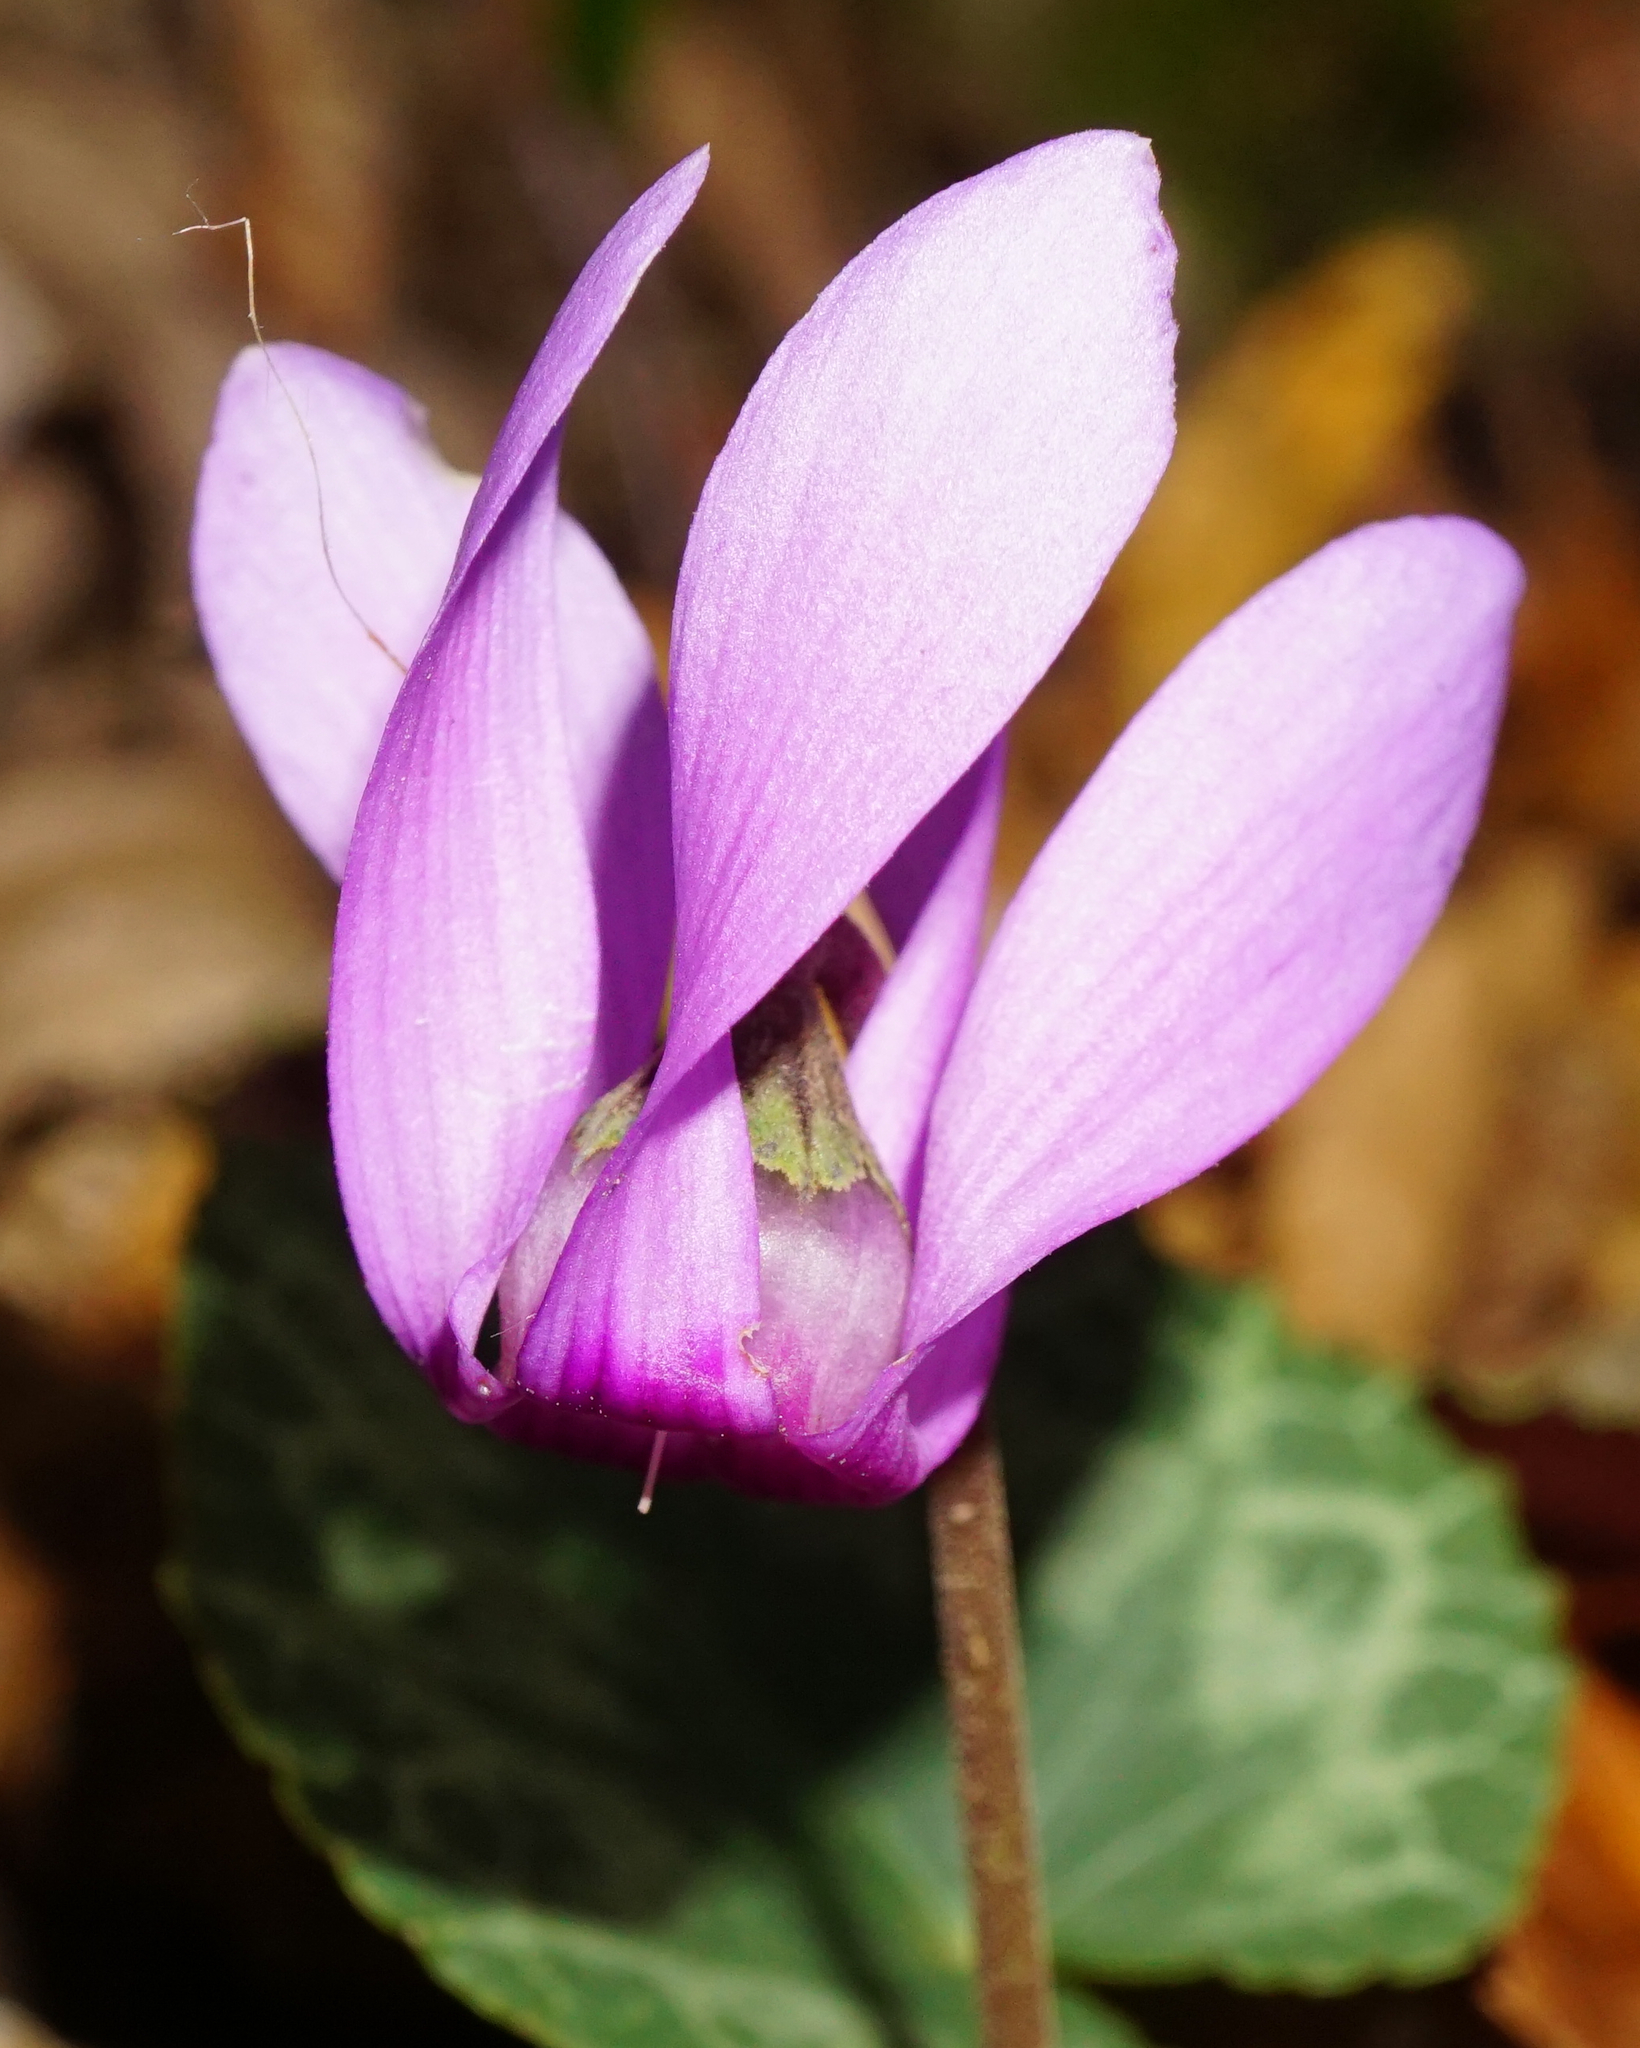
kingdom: Plantae
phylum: Tracheophyta
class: Magnoliopsida
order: Ericales
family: Primulaceae
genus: Cyclamen
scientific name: Cyclamen purpurascens
